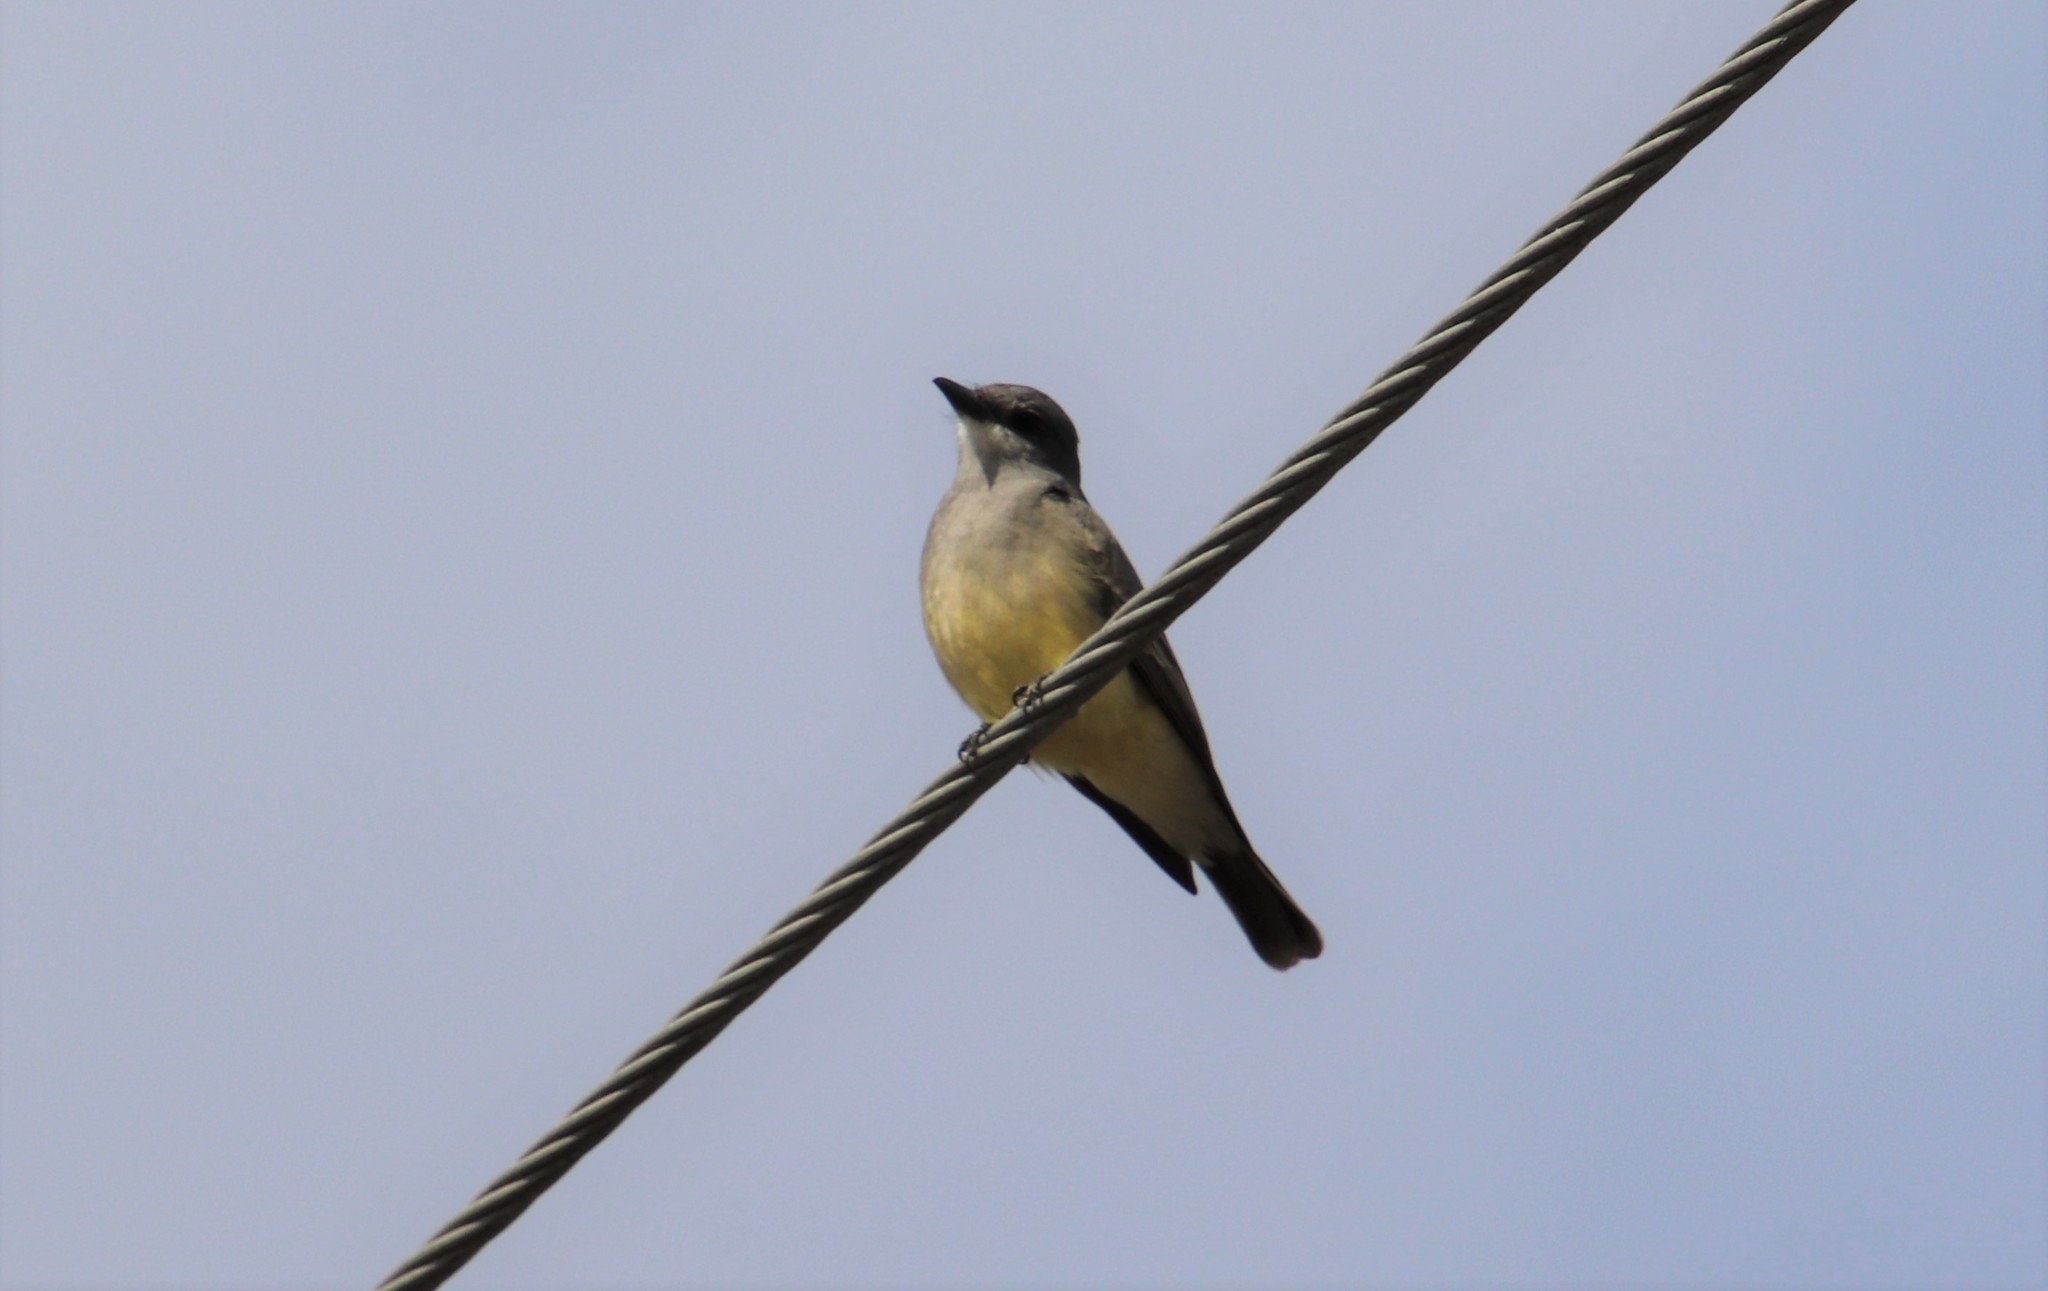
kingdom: Animalia
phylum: Chordata
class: Aves
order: Passeriformes
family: Tyrannidae
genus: Tyrannus
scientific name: Tyrannus vociferans
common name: Cassin's kingbird
